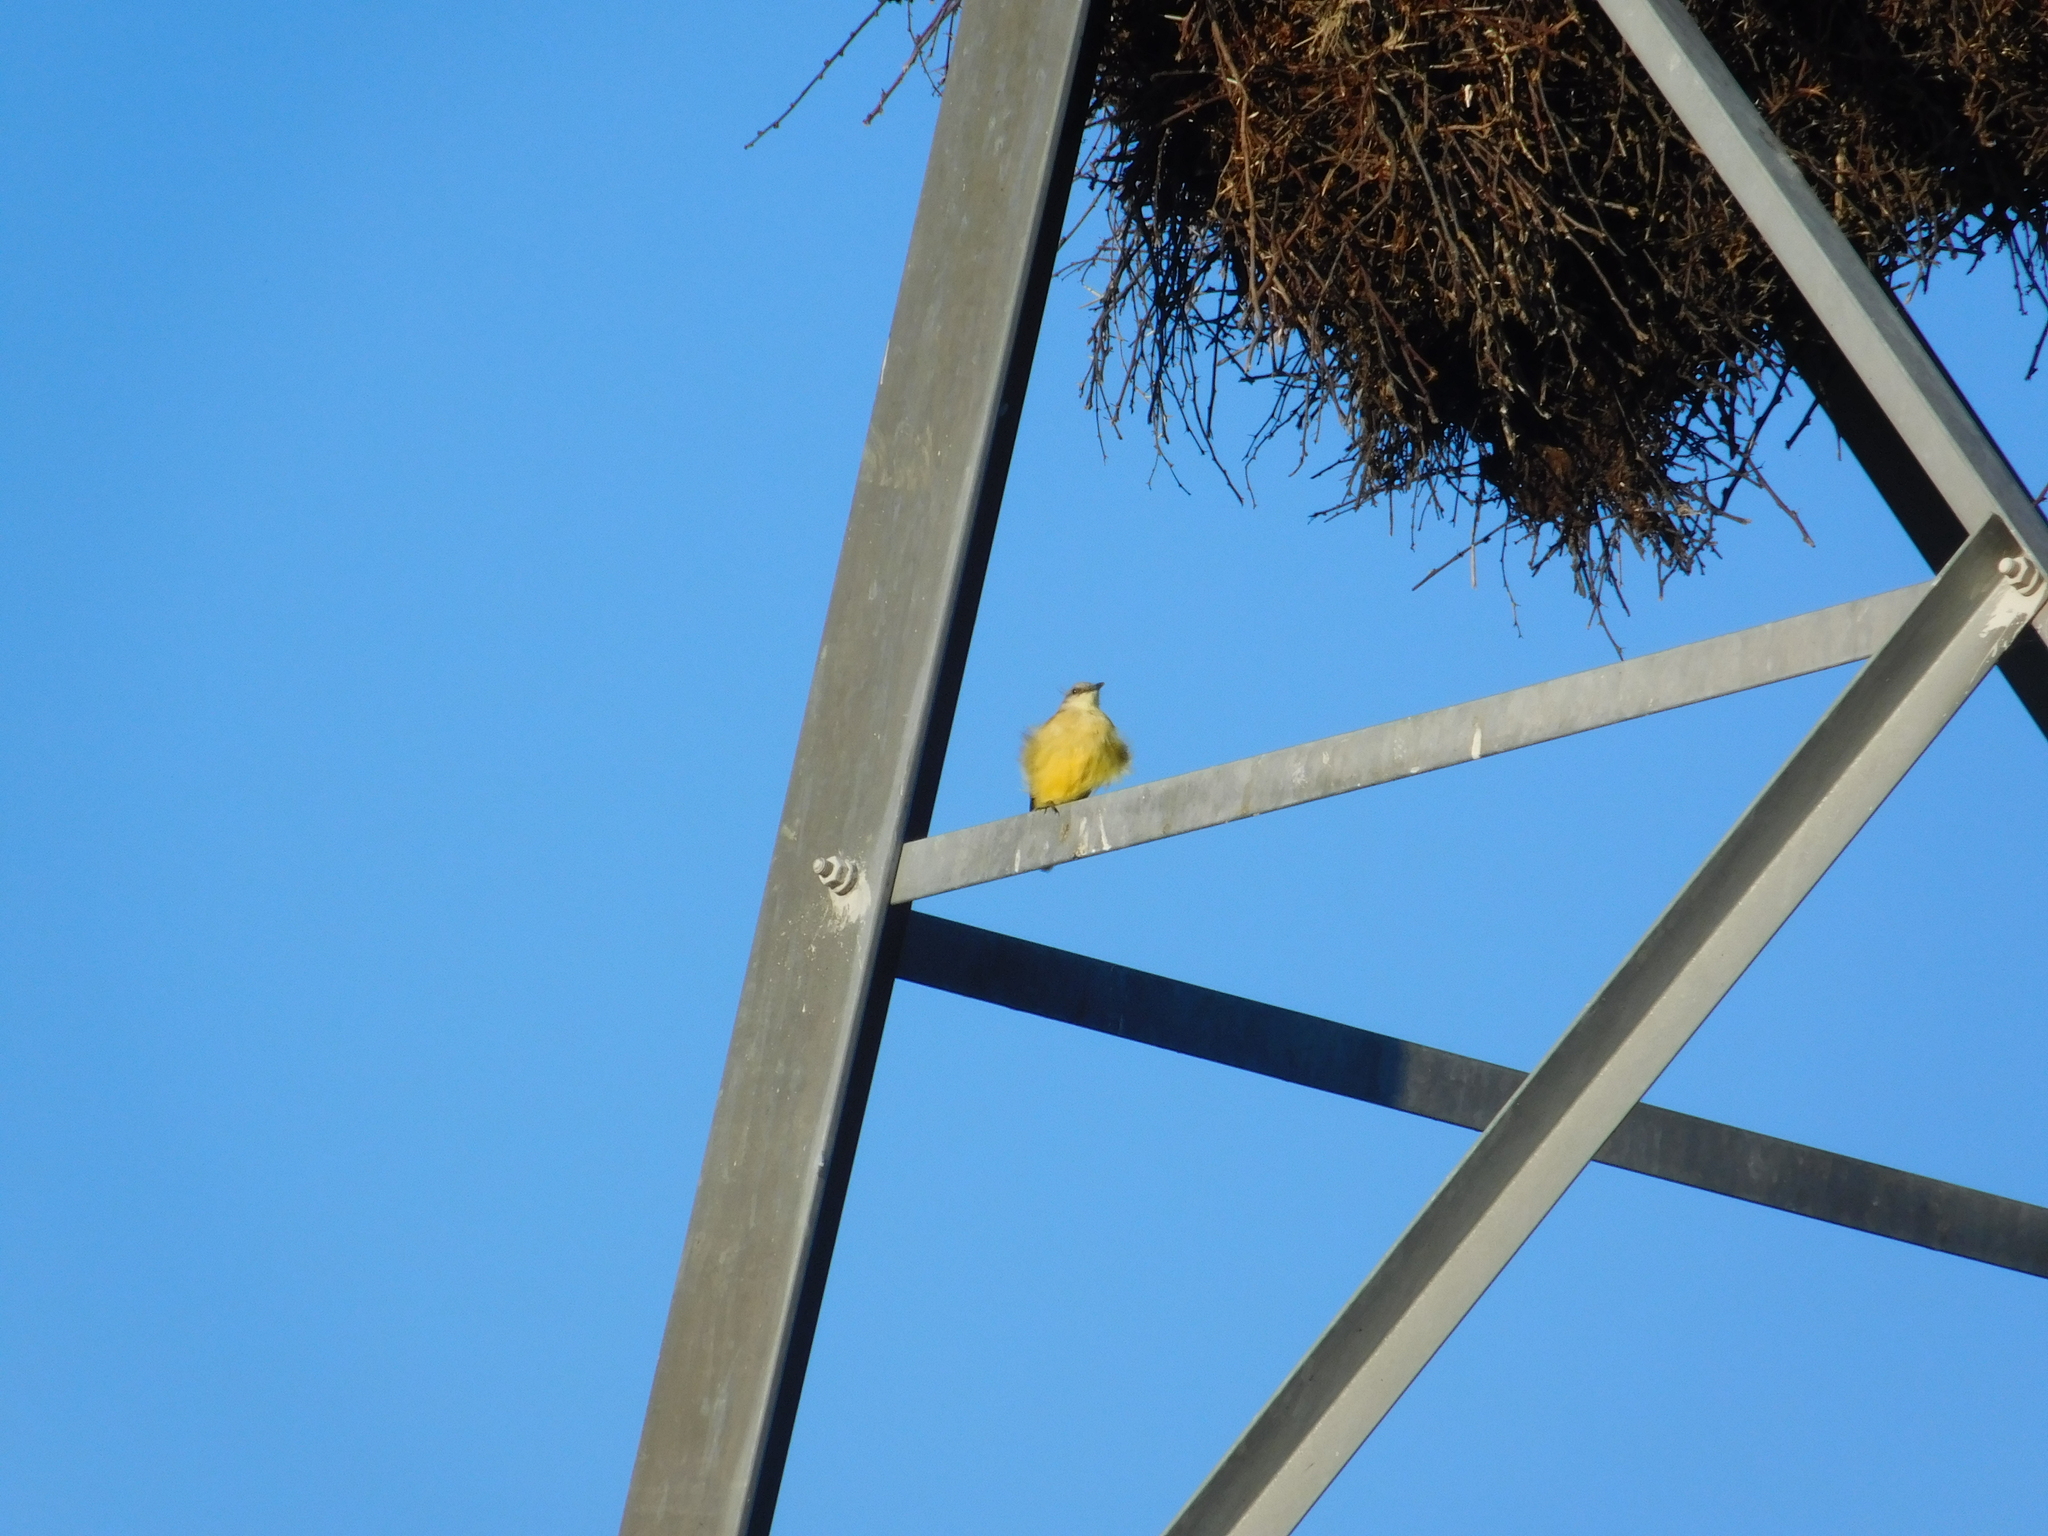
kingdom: Animalia
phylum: Chordata
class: Aves
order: Passeriformes
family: Tyrannidae
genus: Machetornis
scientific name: Machetornis rixosa
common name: Cattle tyrant
